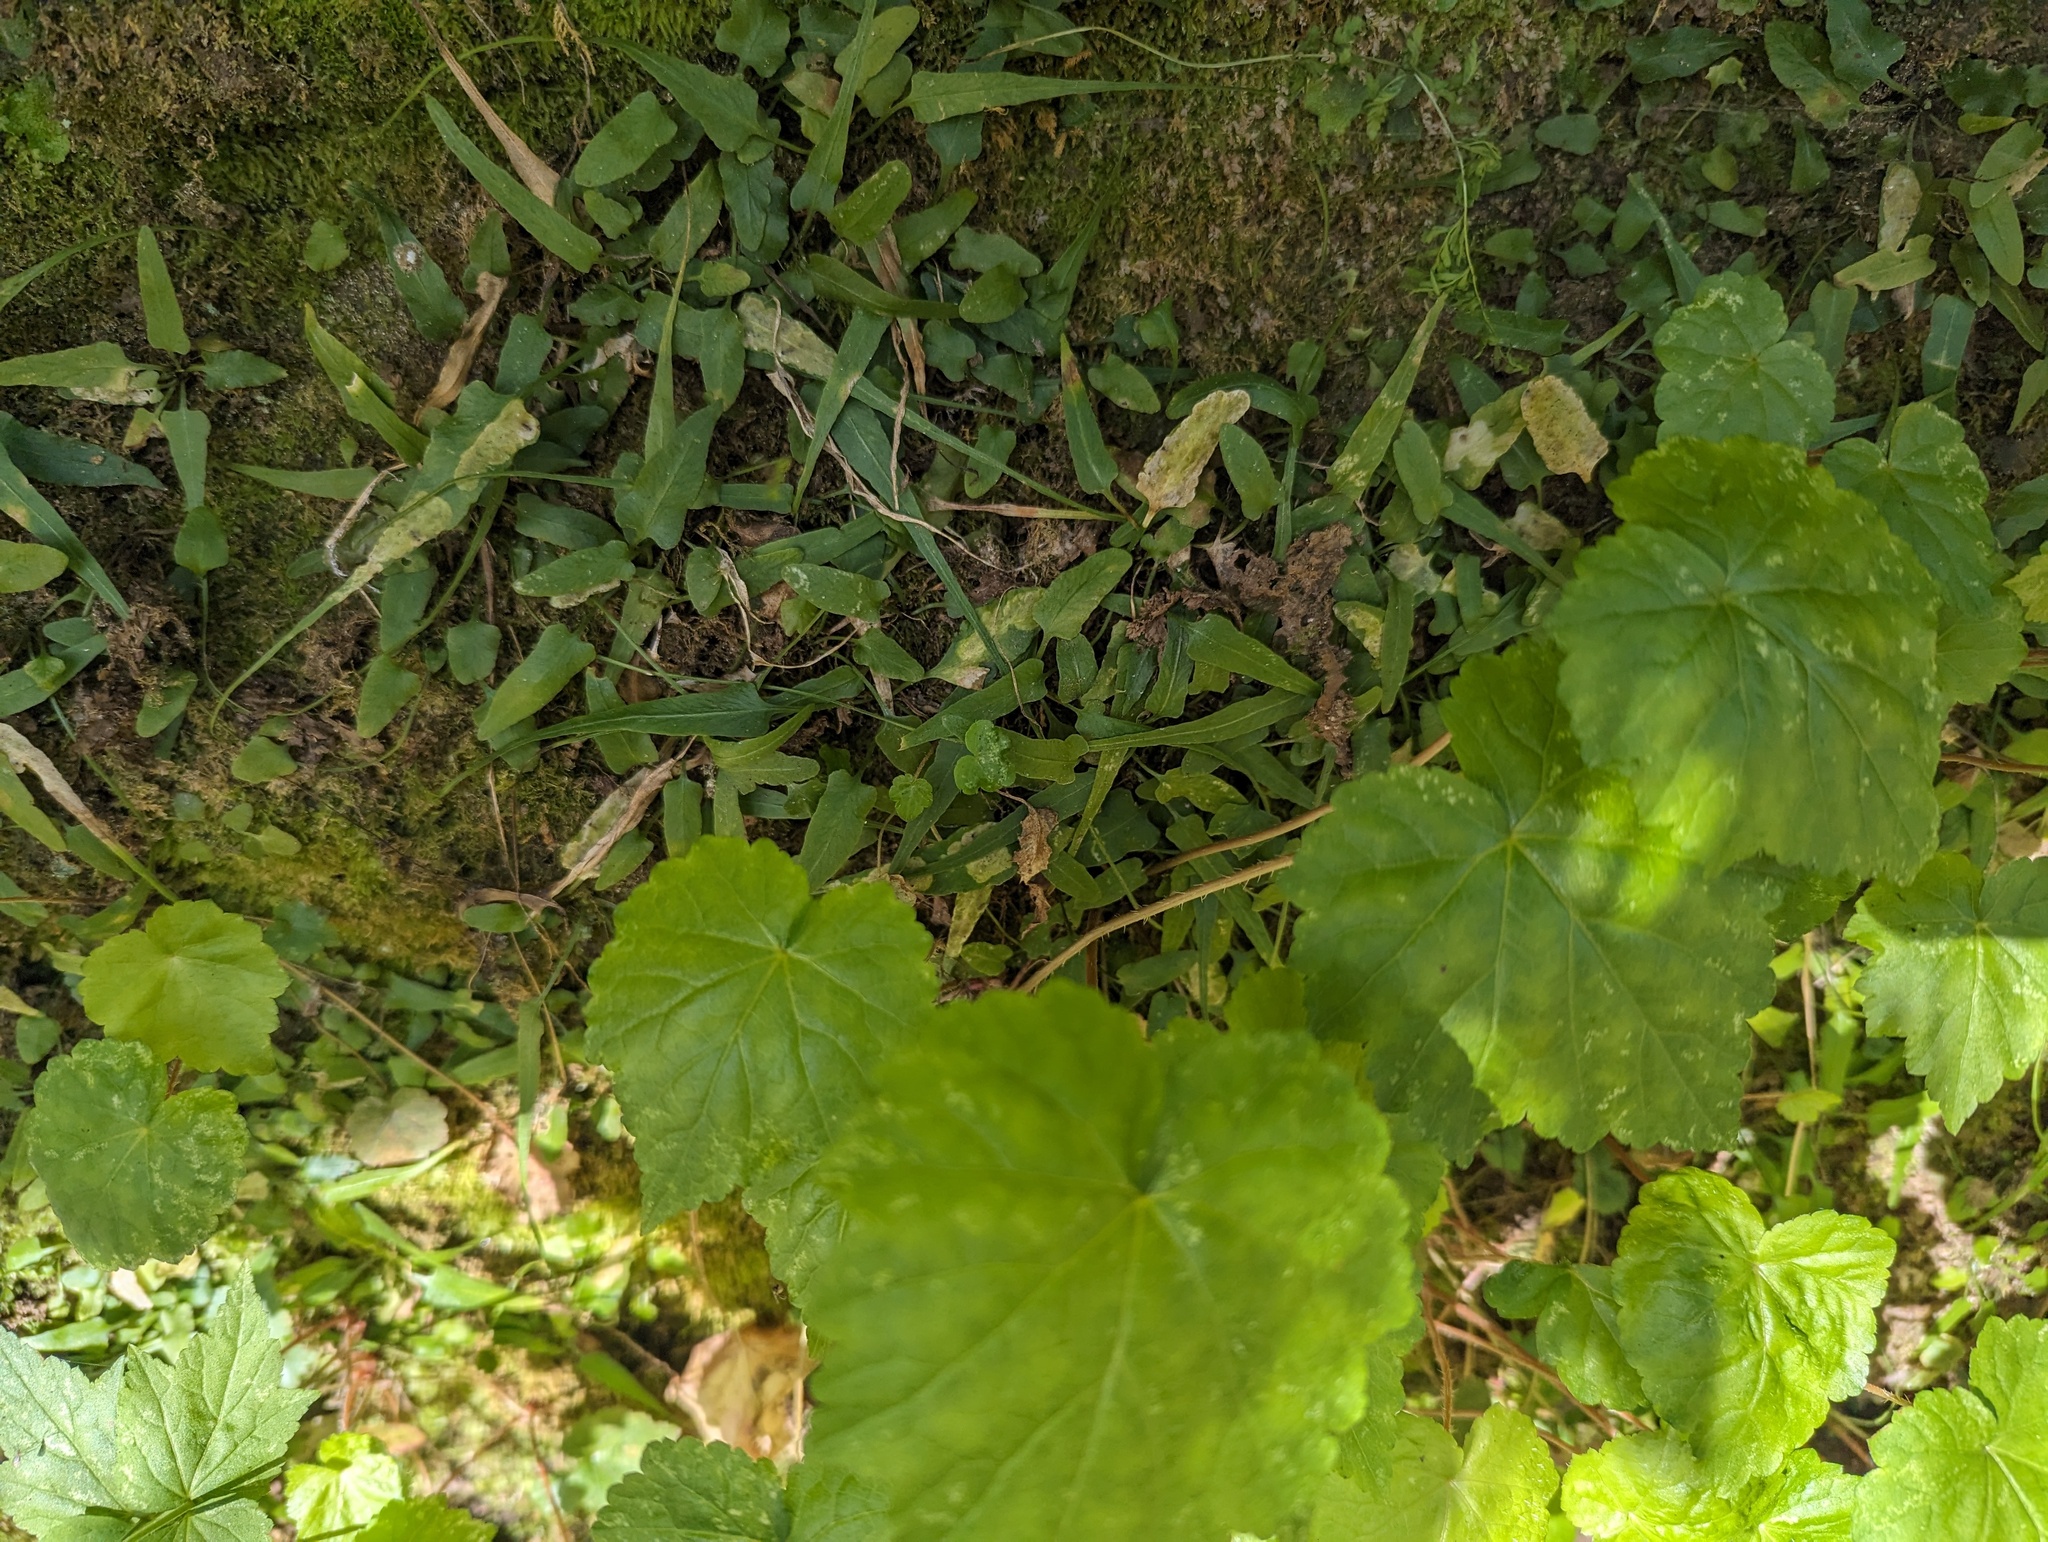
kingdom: Animalia
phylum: Arthropoda
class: Insecta
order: Diptera
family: Agromyzidae
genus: Phytoliriomyza
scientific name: Phytoliriomyza felti
